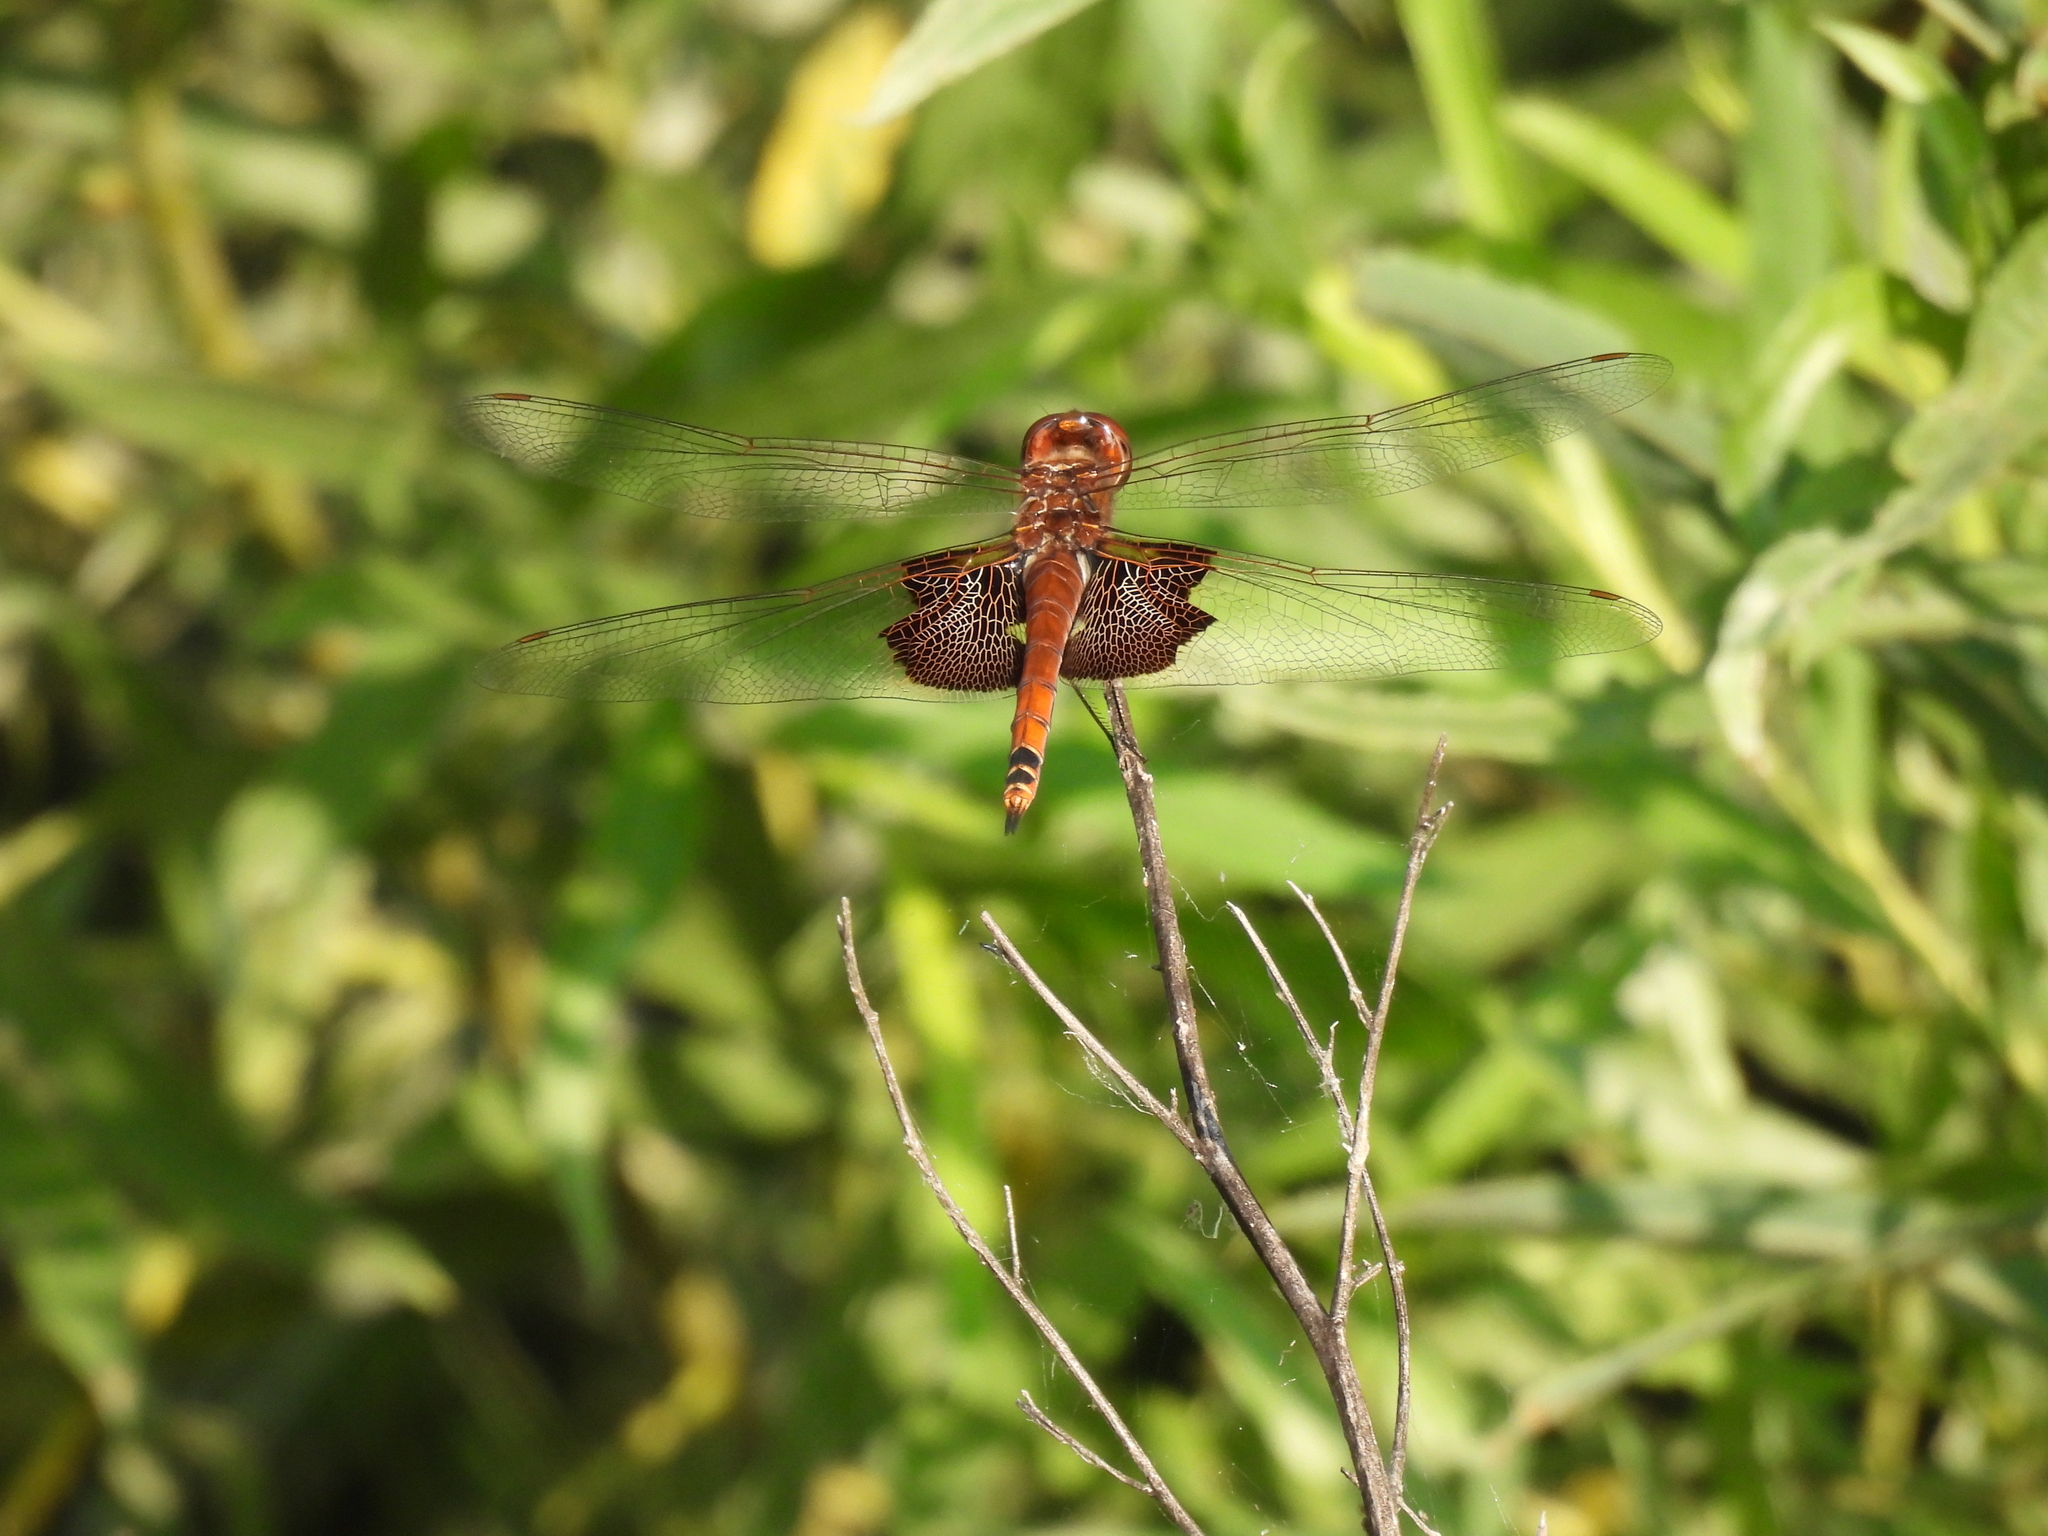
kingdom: Animalia
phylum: Arthropoda
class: Insecta
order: Odonata
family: Libellulidae
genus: Tramea
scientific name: Tramea carolina
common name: Carolina saddlebags
